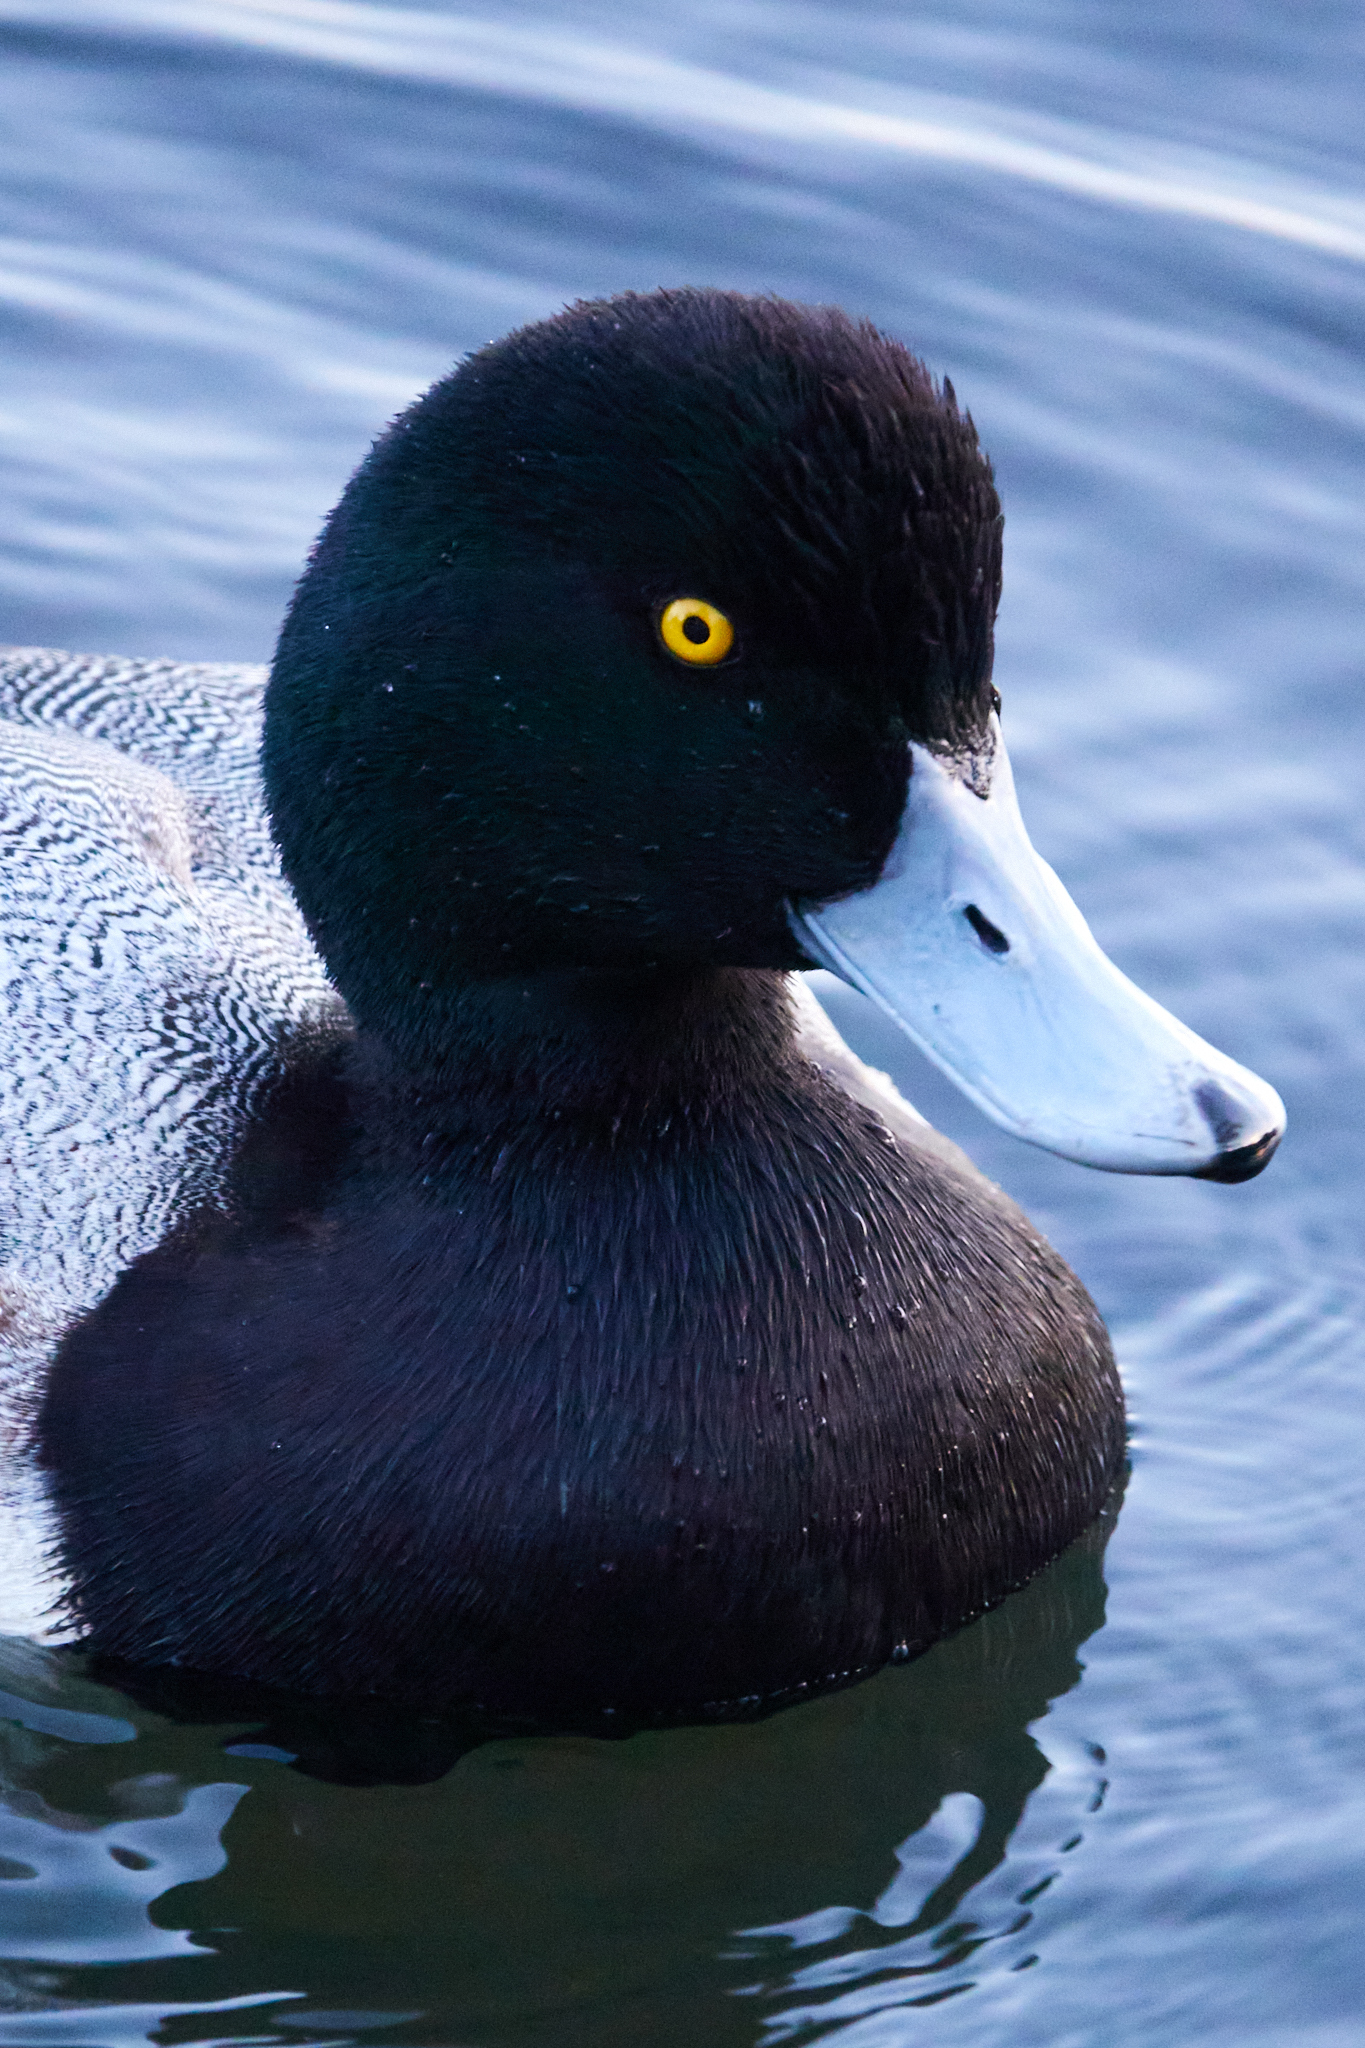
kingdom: Animalia
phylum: Chordata
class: Aves
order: Anseriformes
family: Anatidae
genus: Aythya
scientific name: Aythya affinis
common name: Lesser scaup
